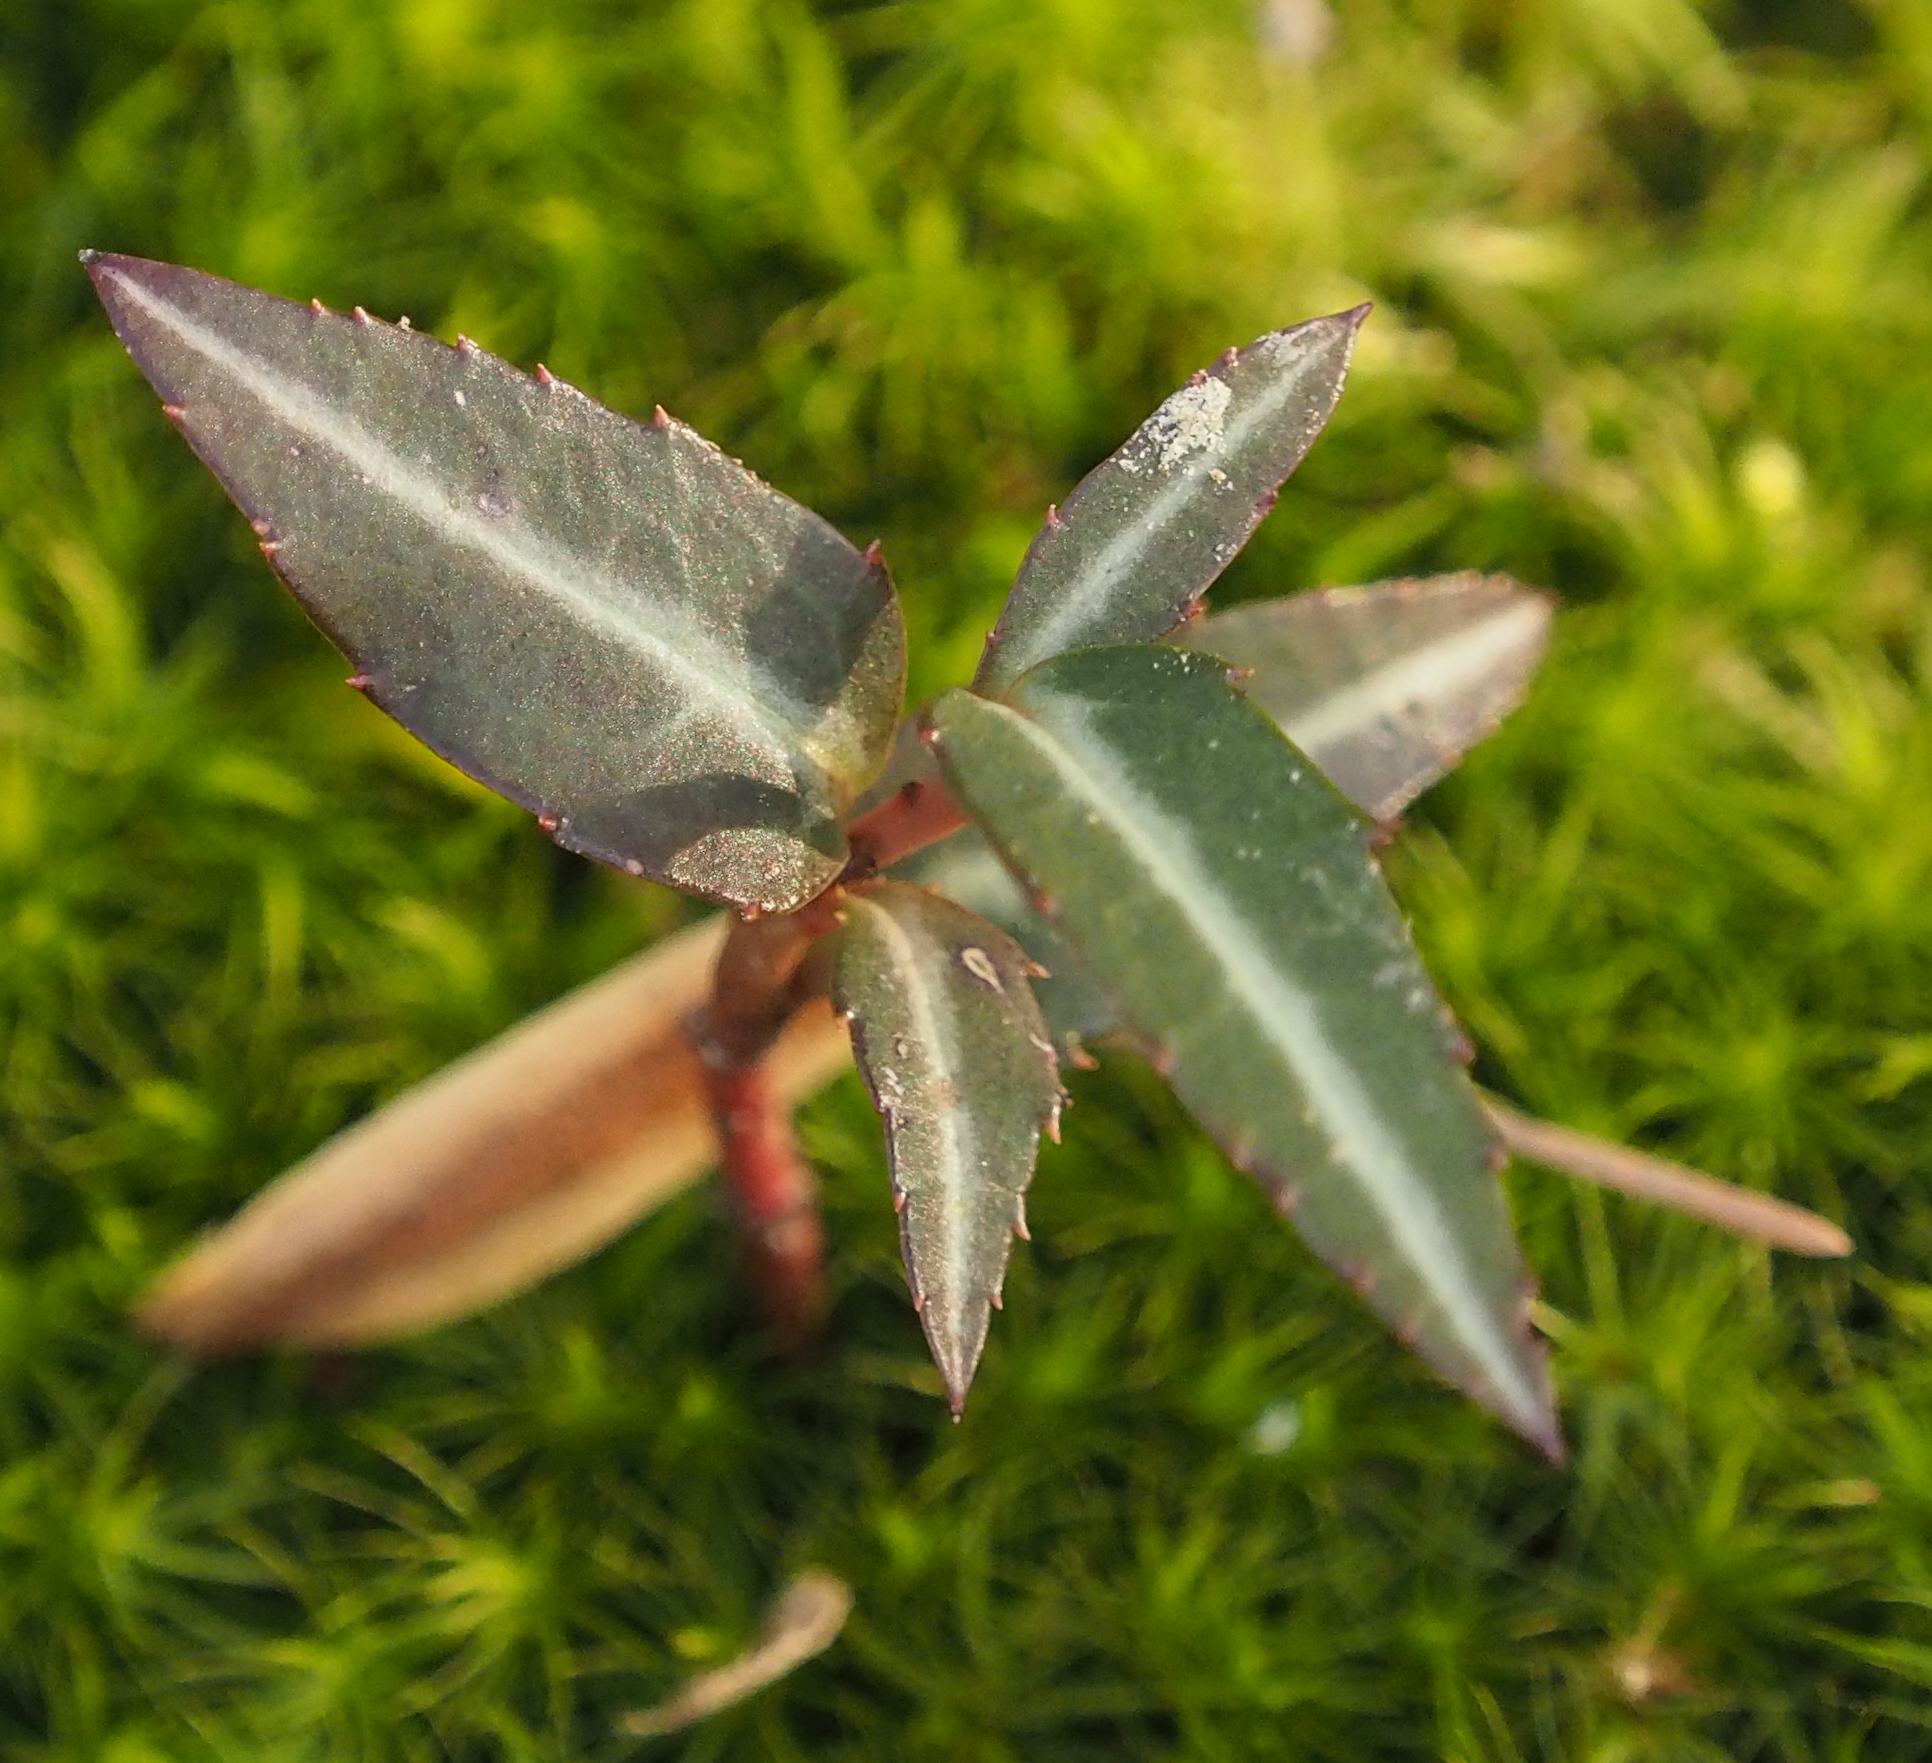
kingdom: Plantae
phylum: Tracheophyta
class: Magnoliopsida
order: Ericales
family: Ericaceae
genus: Chimaphila
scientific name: Chimaphila maculata
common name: Spotted pipsissewa
